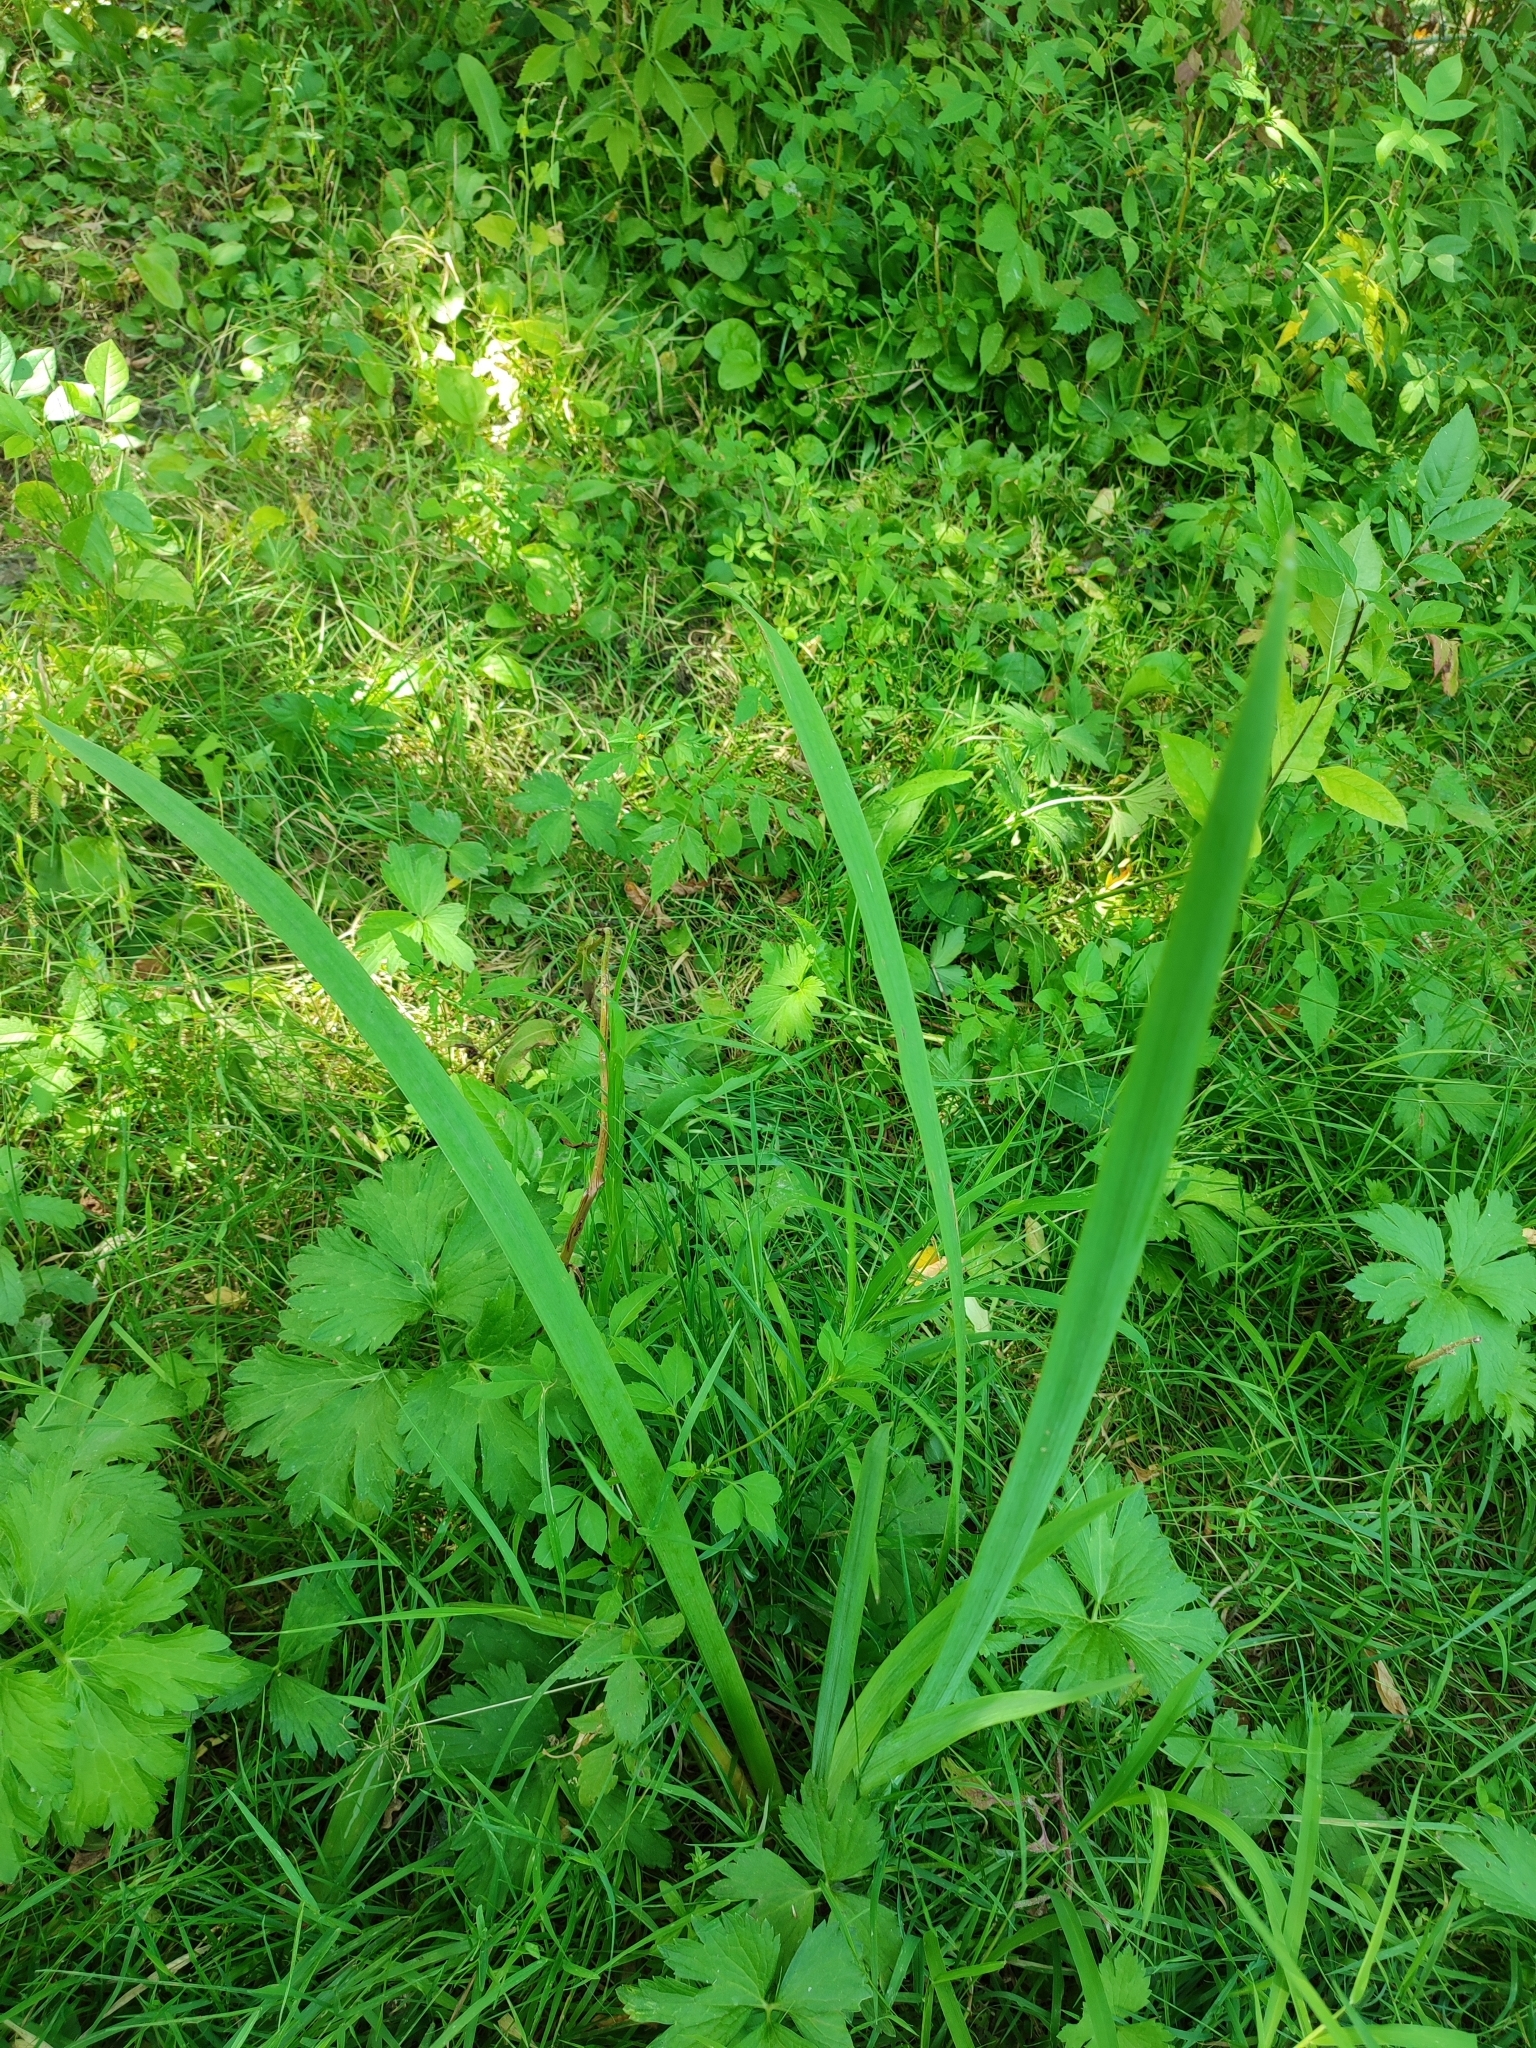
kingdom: Plantae
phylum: Tracheophyta
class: Liliopsida
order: Asparagales
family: Iridaceae
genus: Iris
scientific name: Iris pseudacorus
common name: Yellow flag
